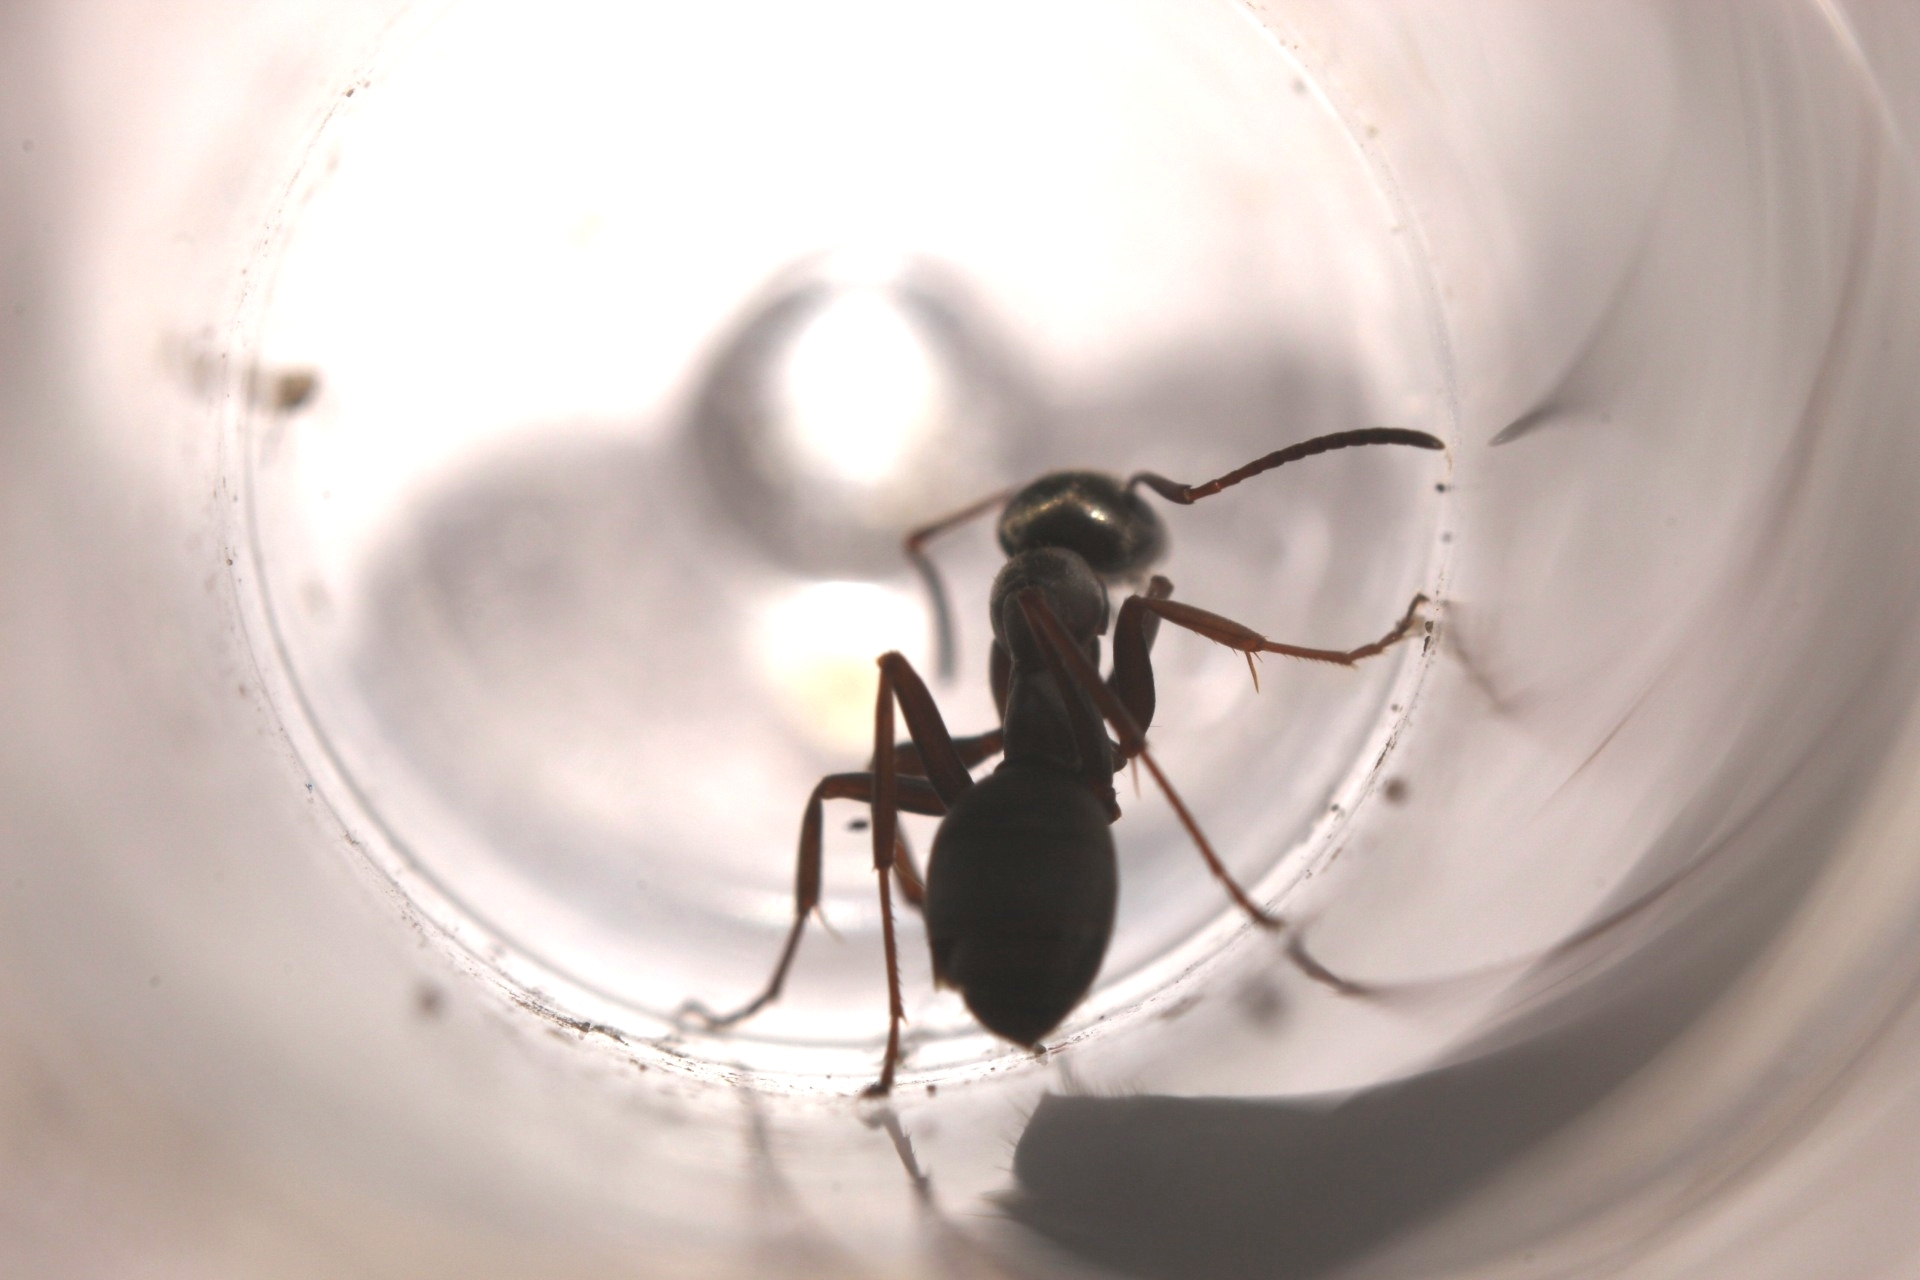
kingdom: Animalia
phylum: Arthropoda
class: Insecta
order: Hymenoptera
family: Formicidae
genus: Formica
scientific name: Formica lemani
